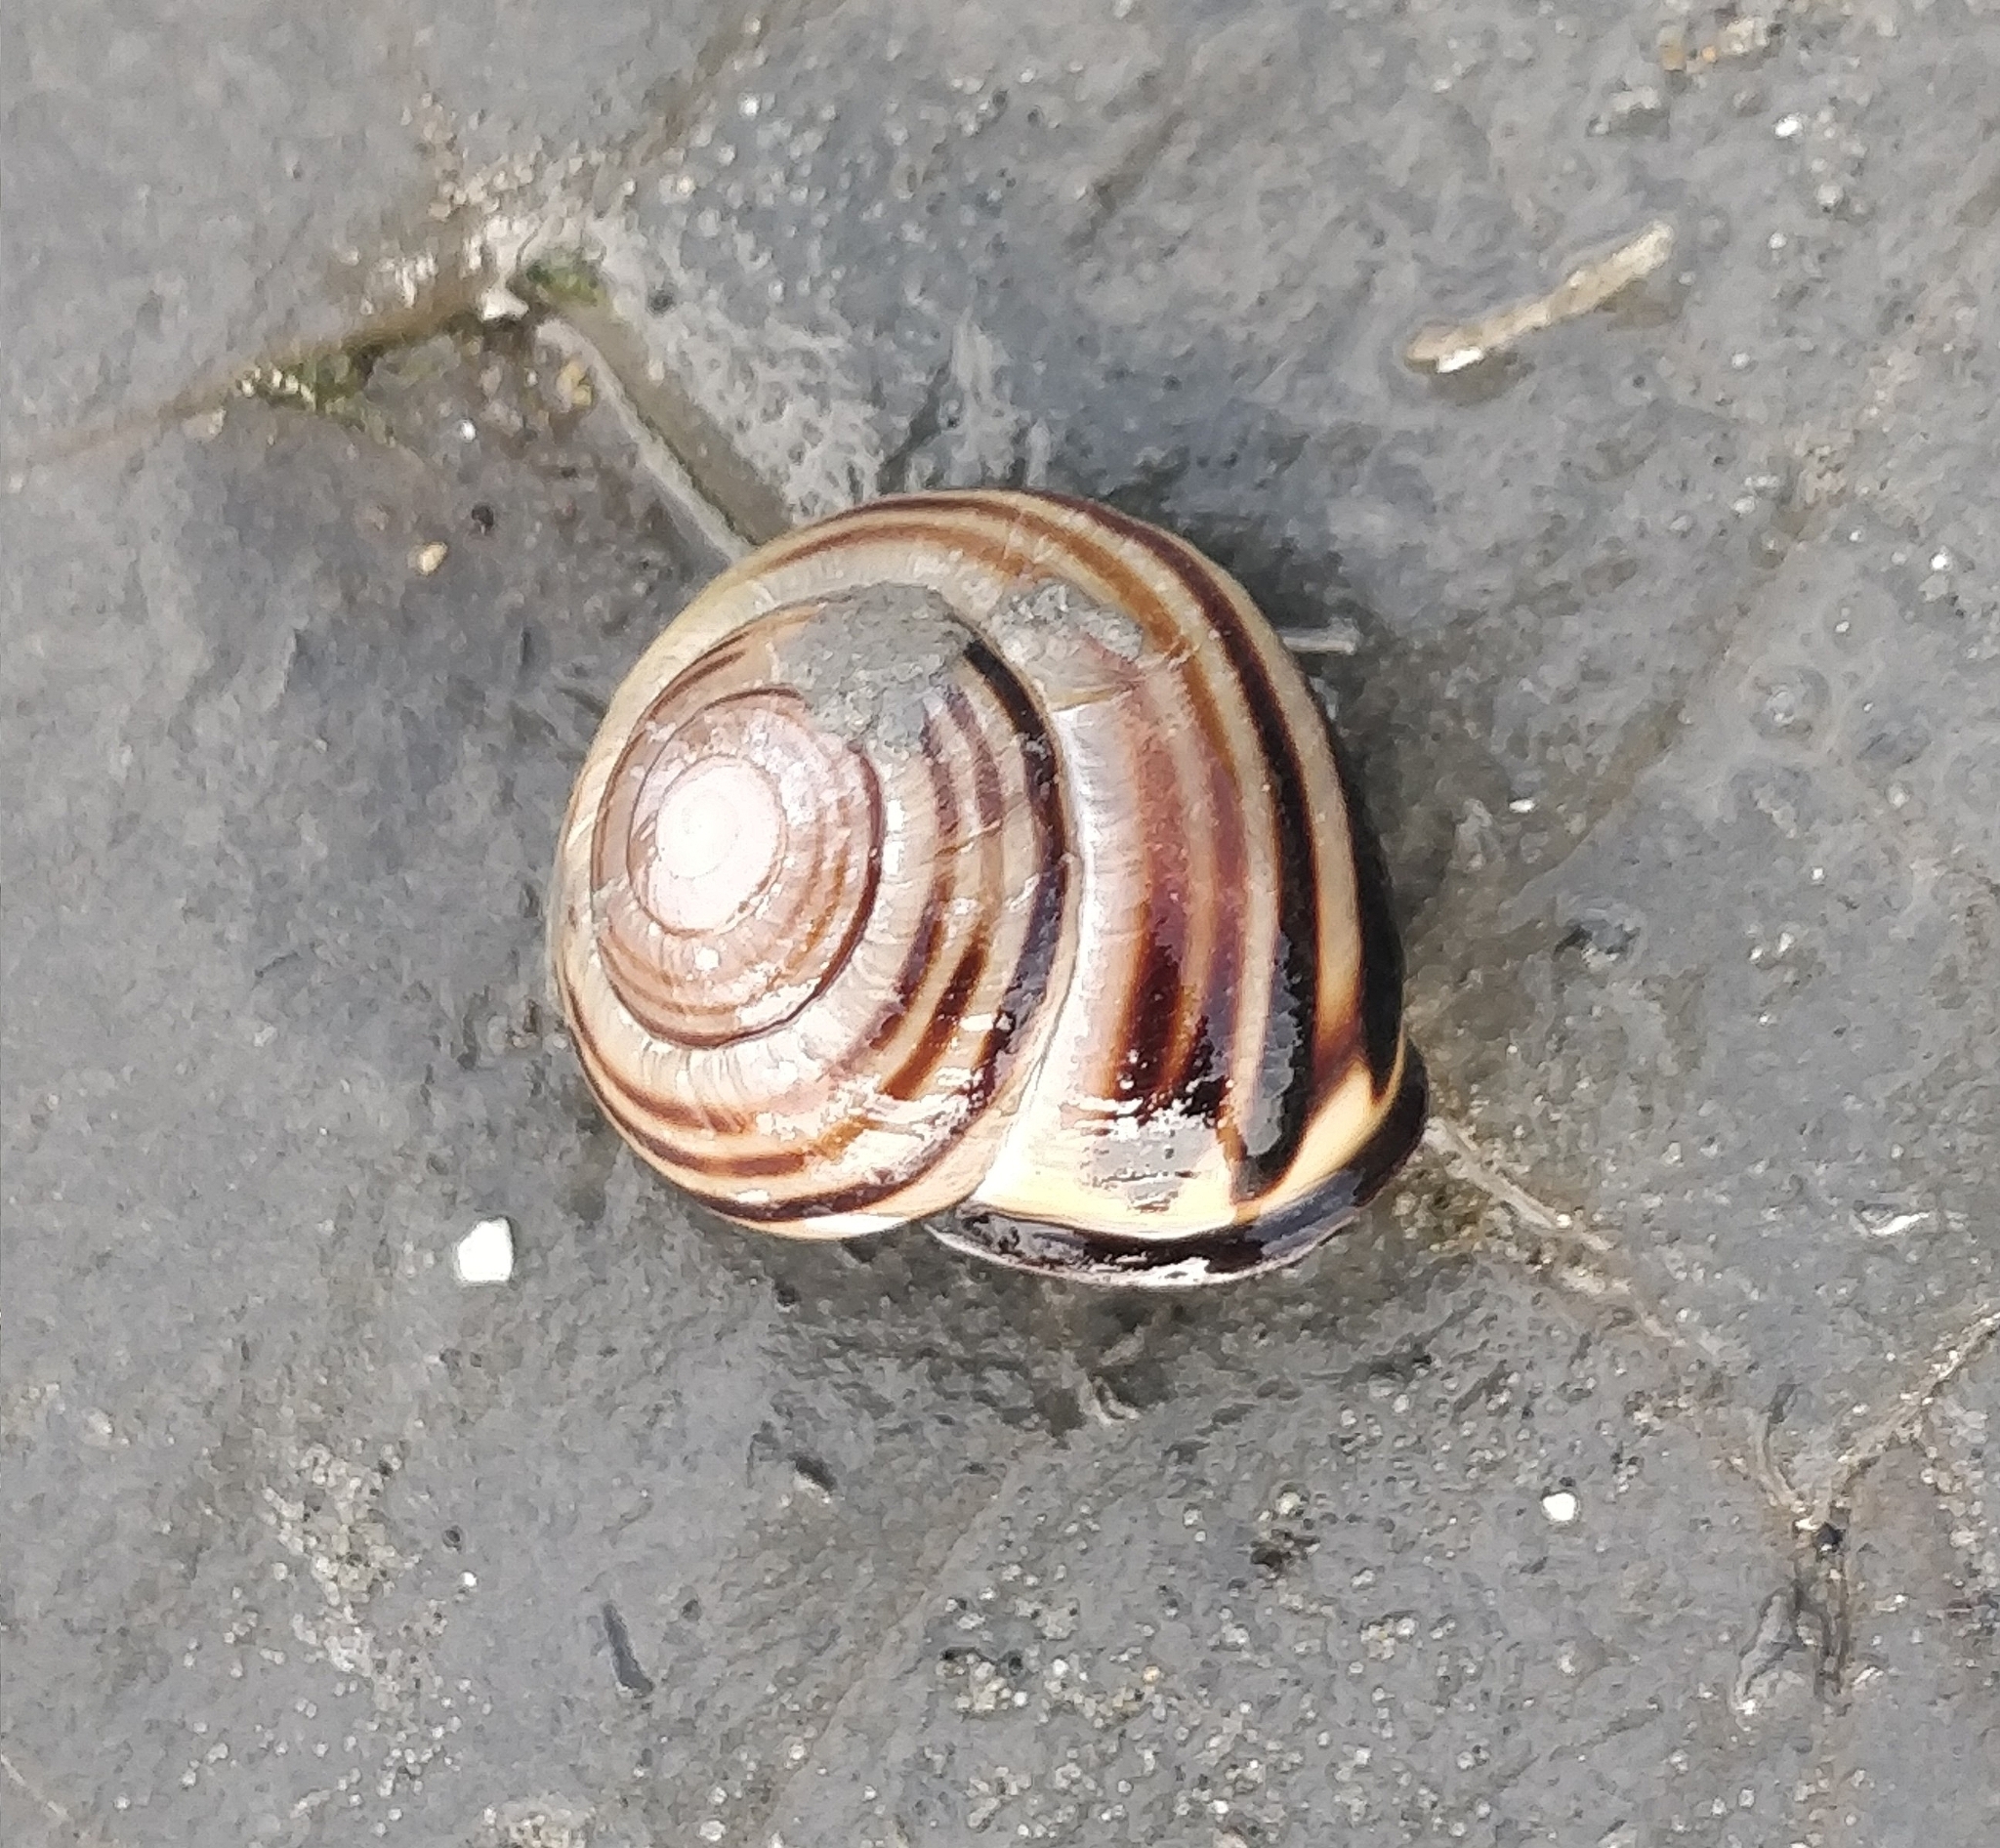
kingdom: Animalia
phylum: Mollusca
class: Gastropoda
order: Stylommatophora
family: Helicidae
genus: Cepaea
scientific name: Cepaea nemoralis
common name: Grovesnail
